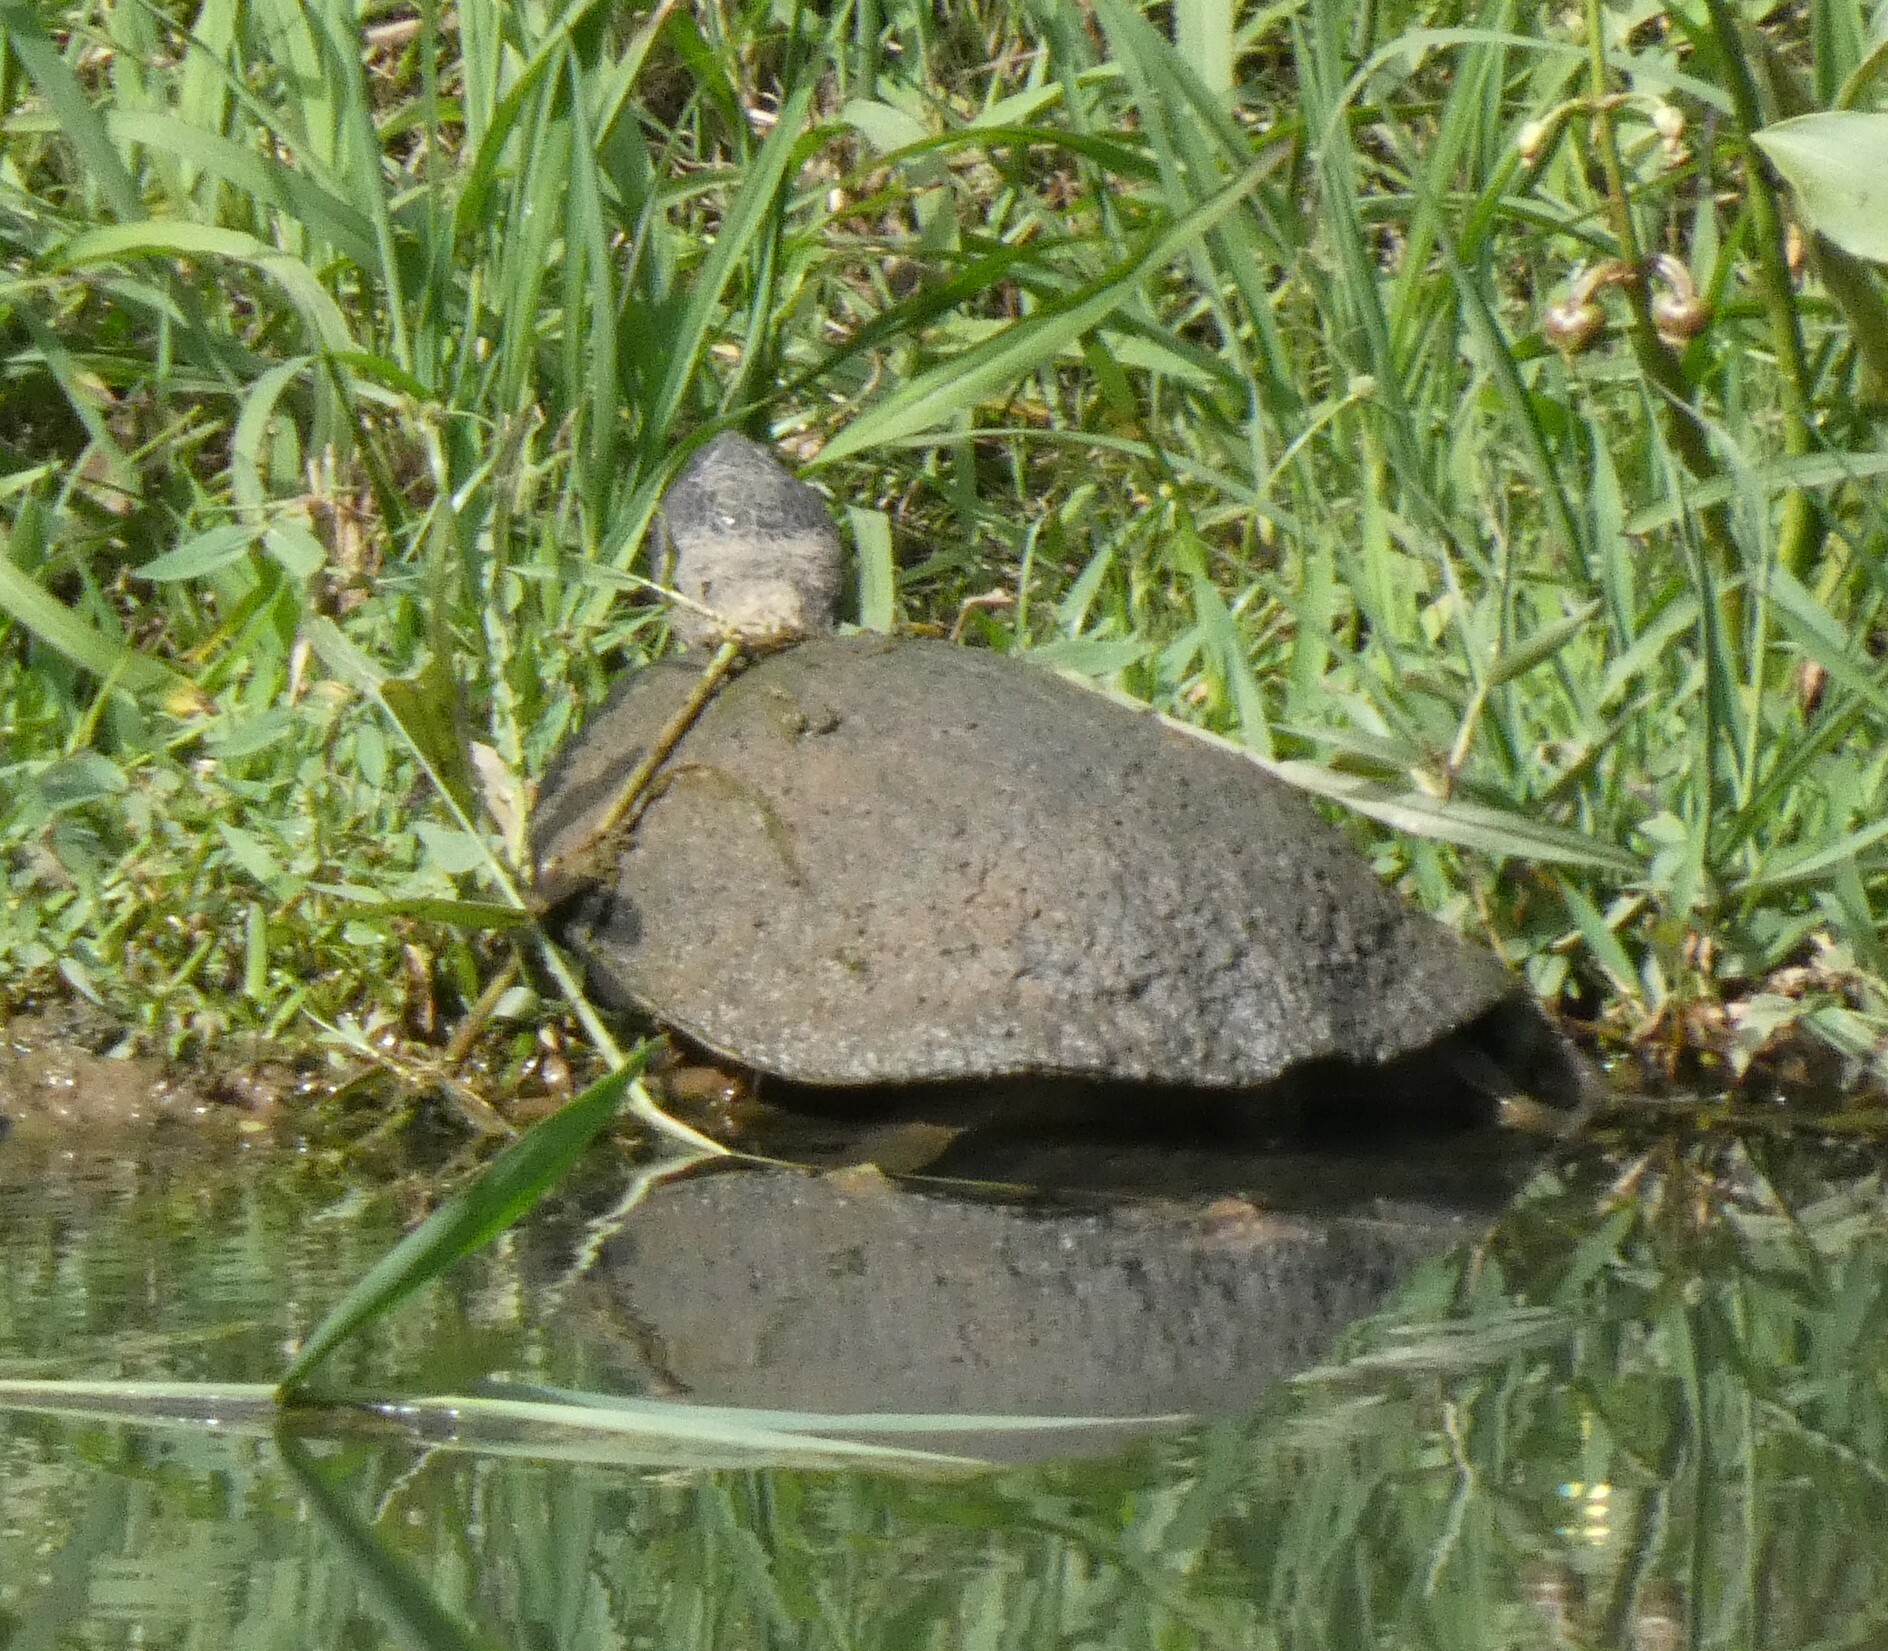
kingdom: Animalia
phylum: Chordata
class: Testudines
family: Chelidae
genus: Phrynops
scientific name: Phrynops geoffroanus
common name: Side-necked turtle of geoffroy
